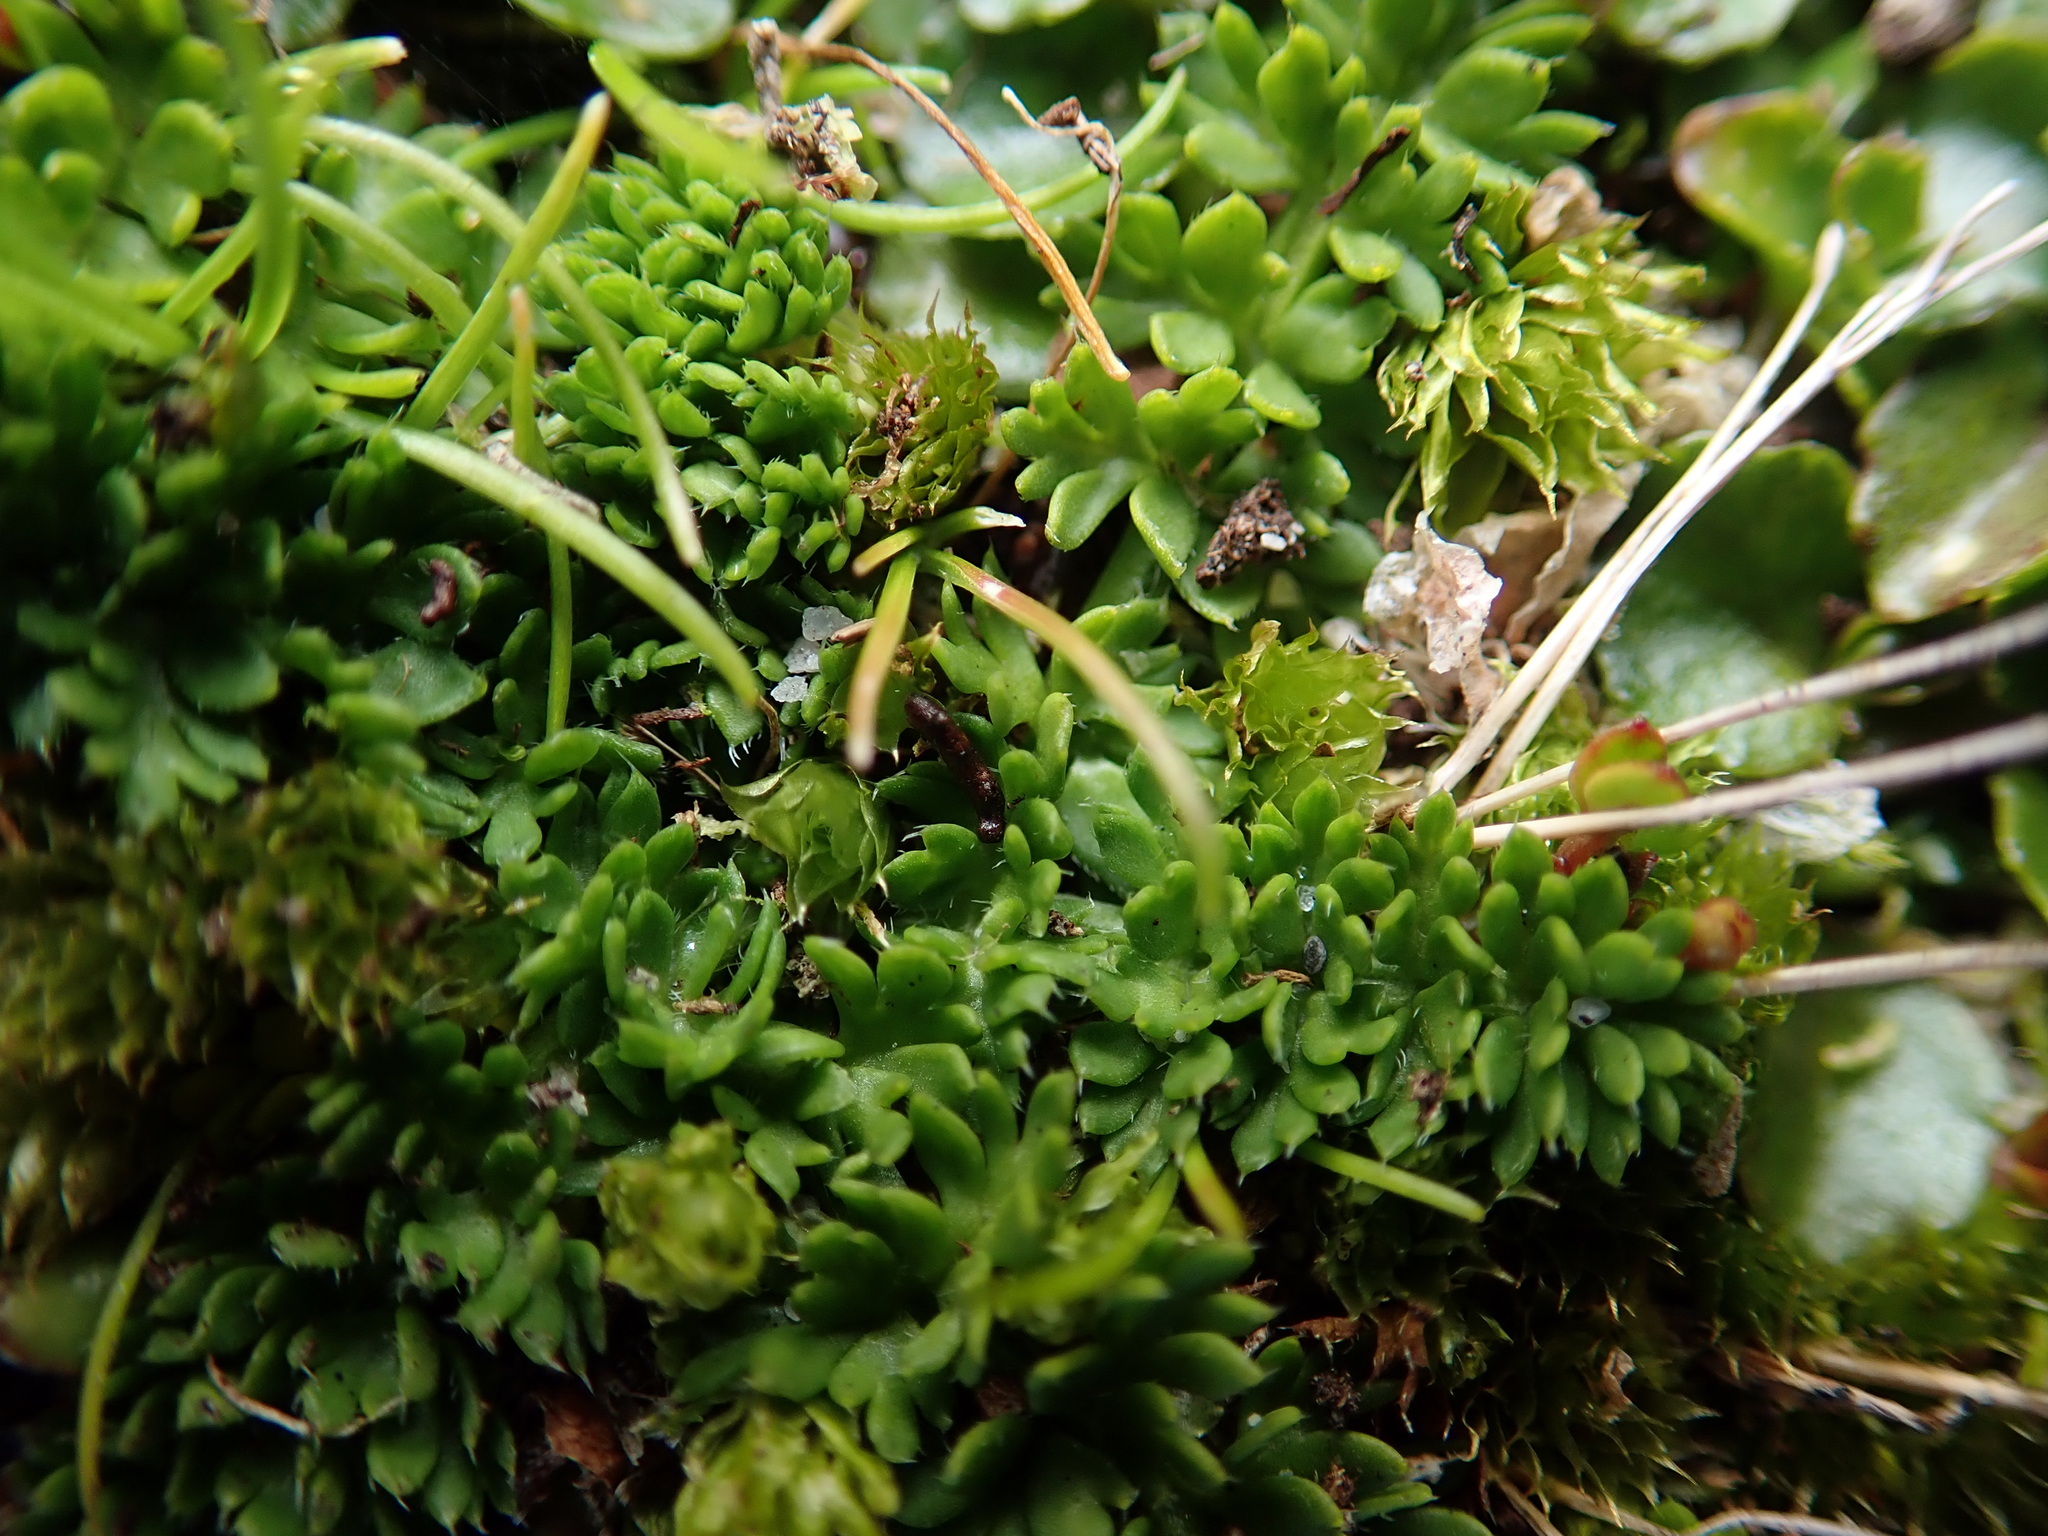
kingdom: Plantae
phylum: Tracheophyta
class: Magnoliopsida
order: Apiales
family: Apiaceae
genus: Chaerophyllum
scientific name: Chaerophyllum colensoi
